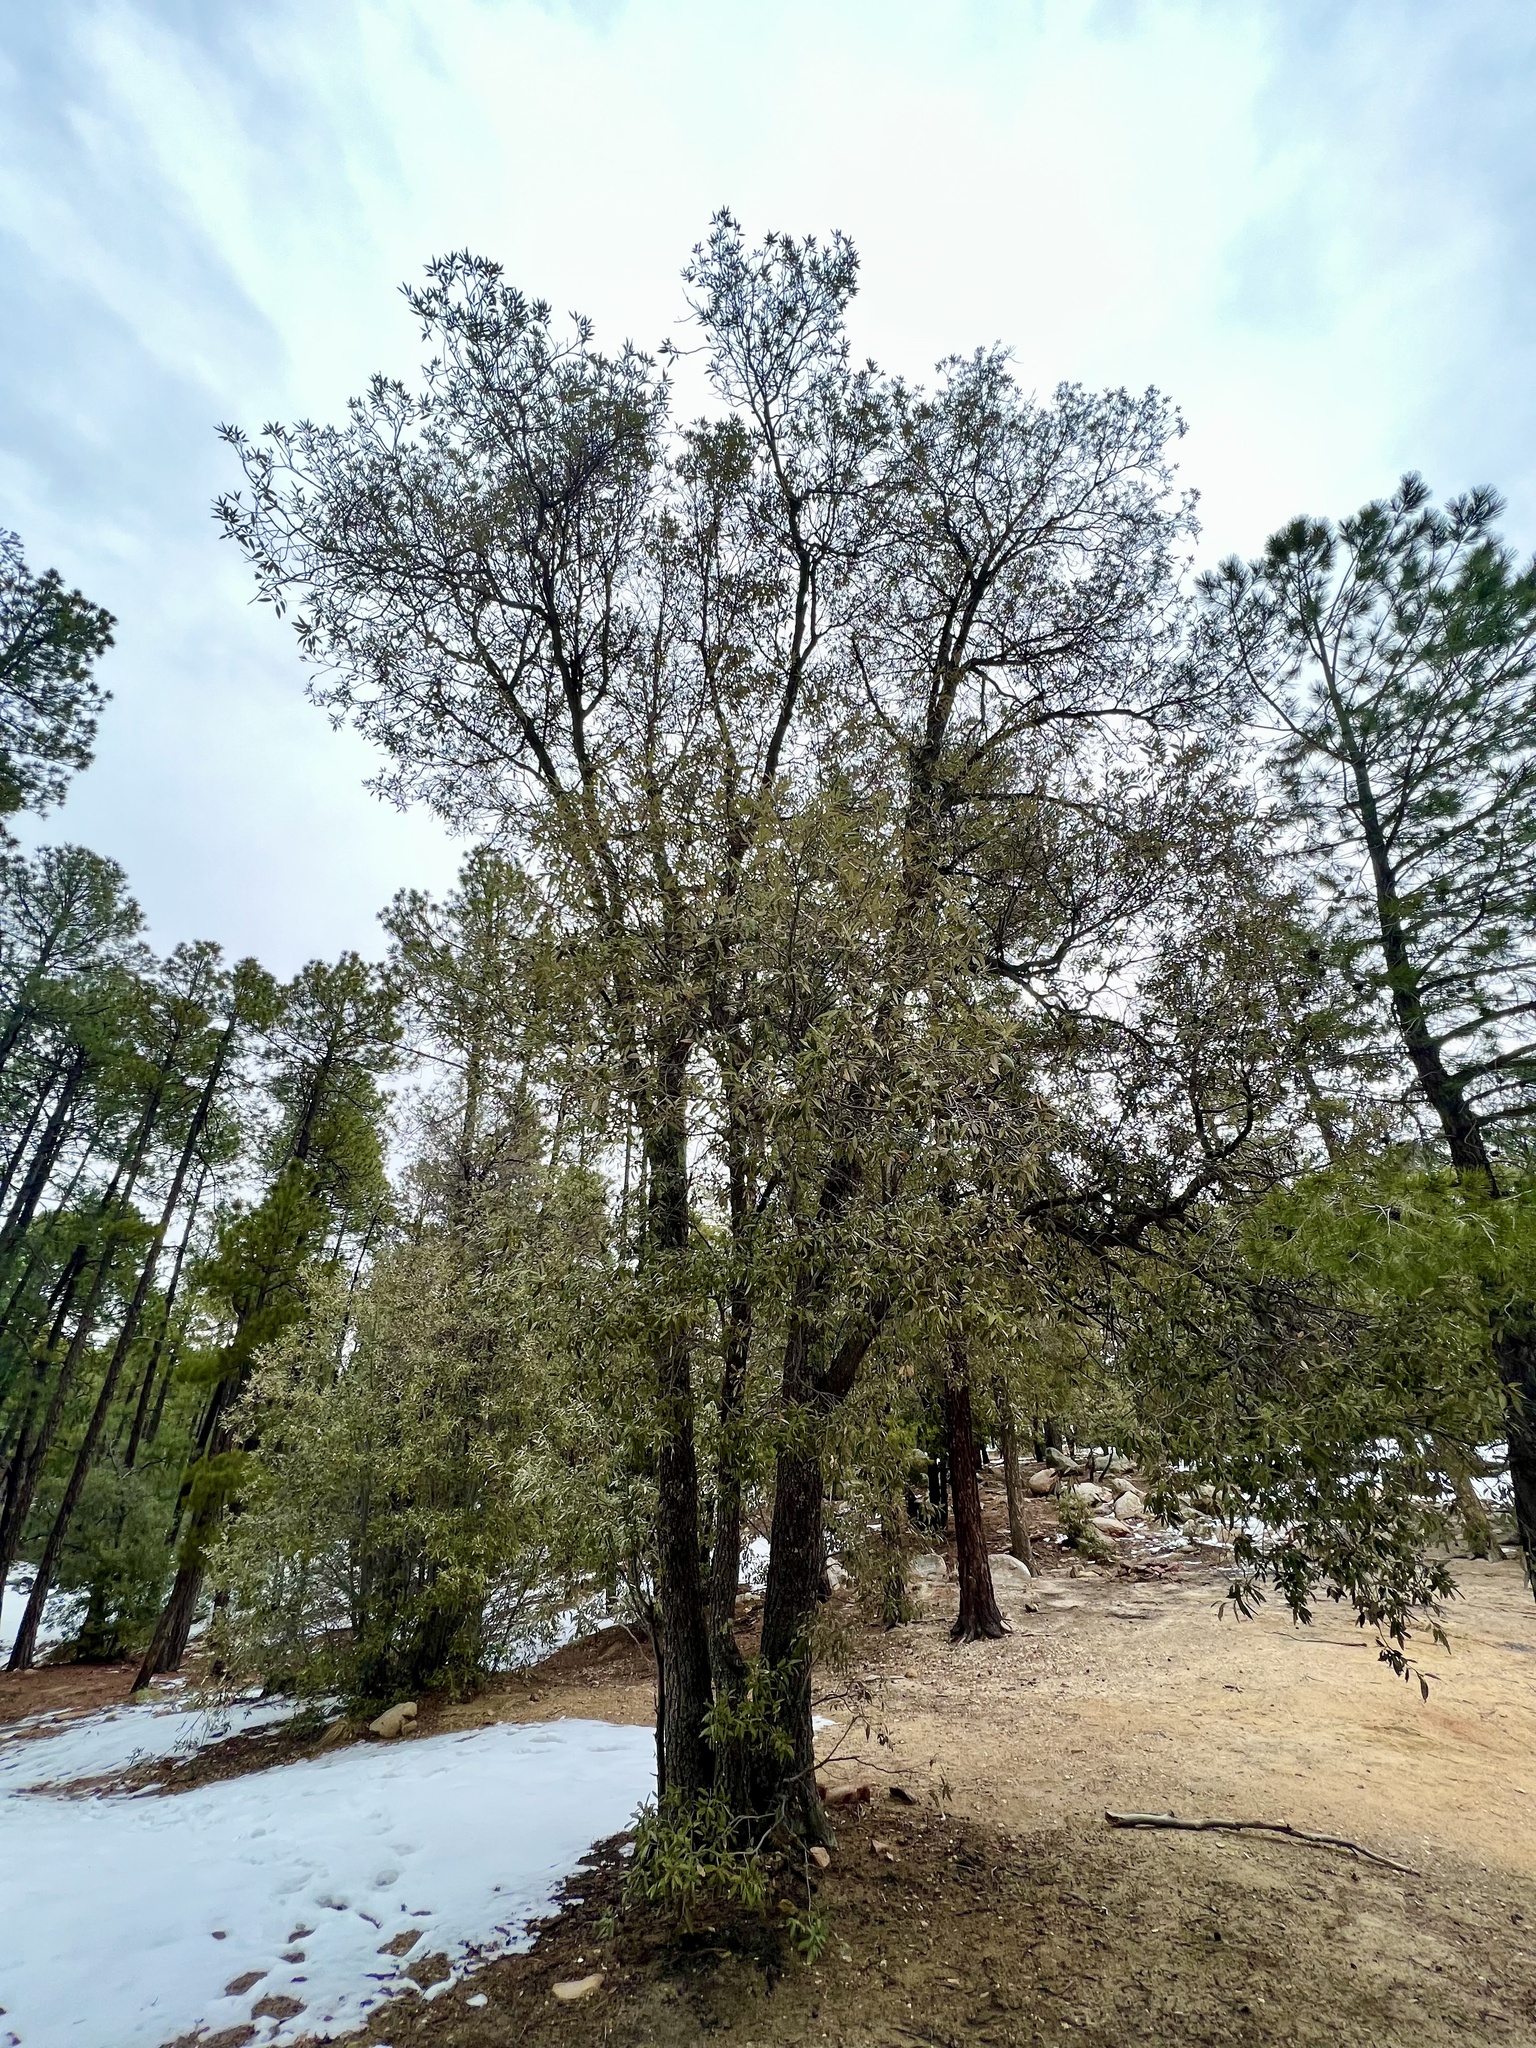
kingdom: Plantae
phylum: Tracheophyta
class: Magnoliopsida
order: Fagales
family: Fagaceae
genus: Quercus
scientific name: Quercus hypoleucoides
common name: Silverleaf oak
